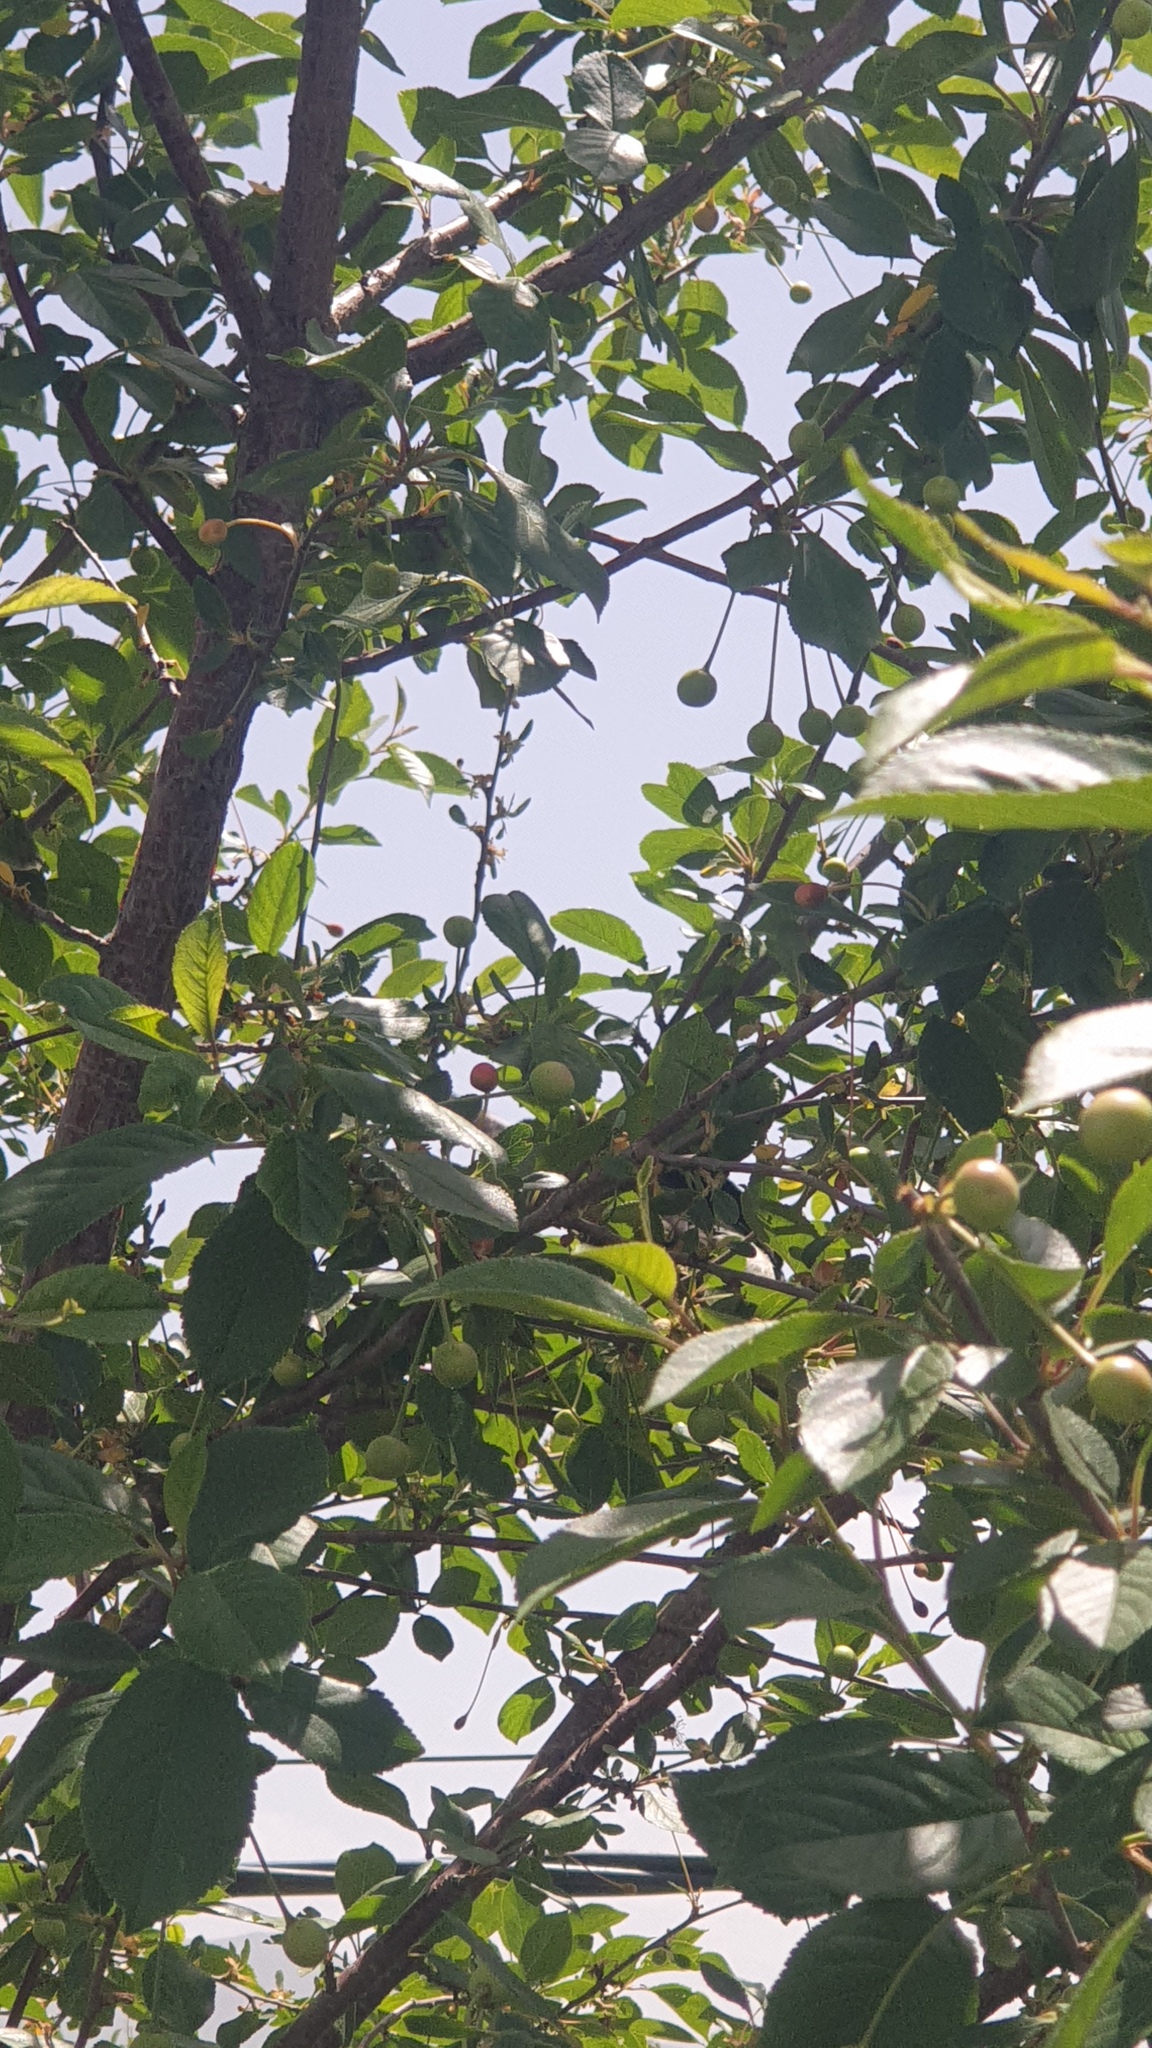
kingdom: Animalia
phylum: Chordata
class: Aves
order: Passeriformes
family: Corvidae
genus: Pica
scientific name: Pica pica
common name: Eurasian magpie
